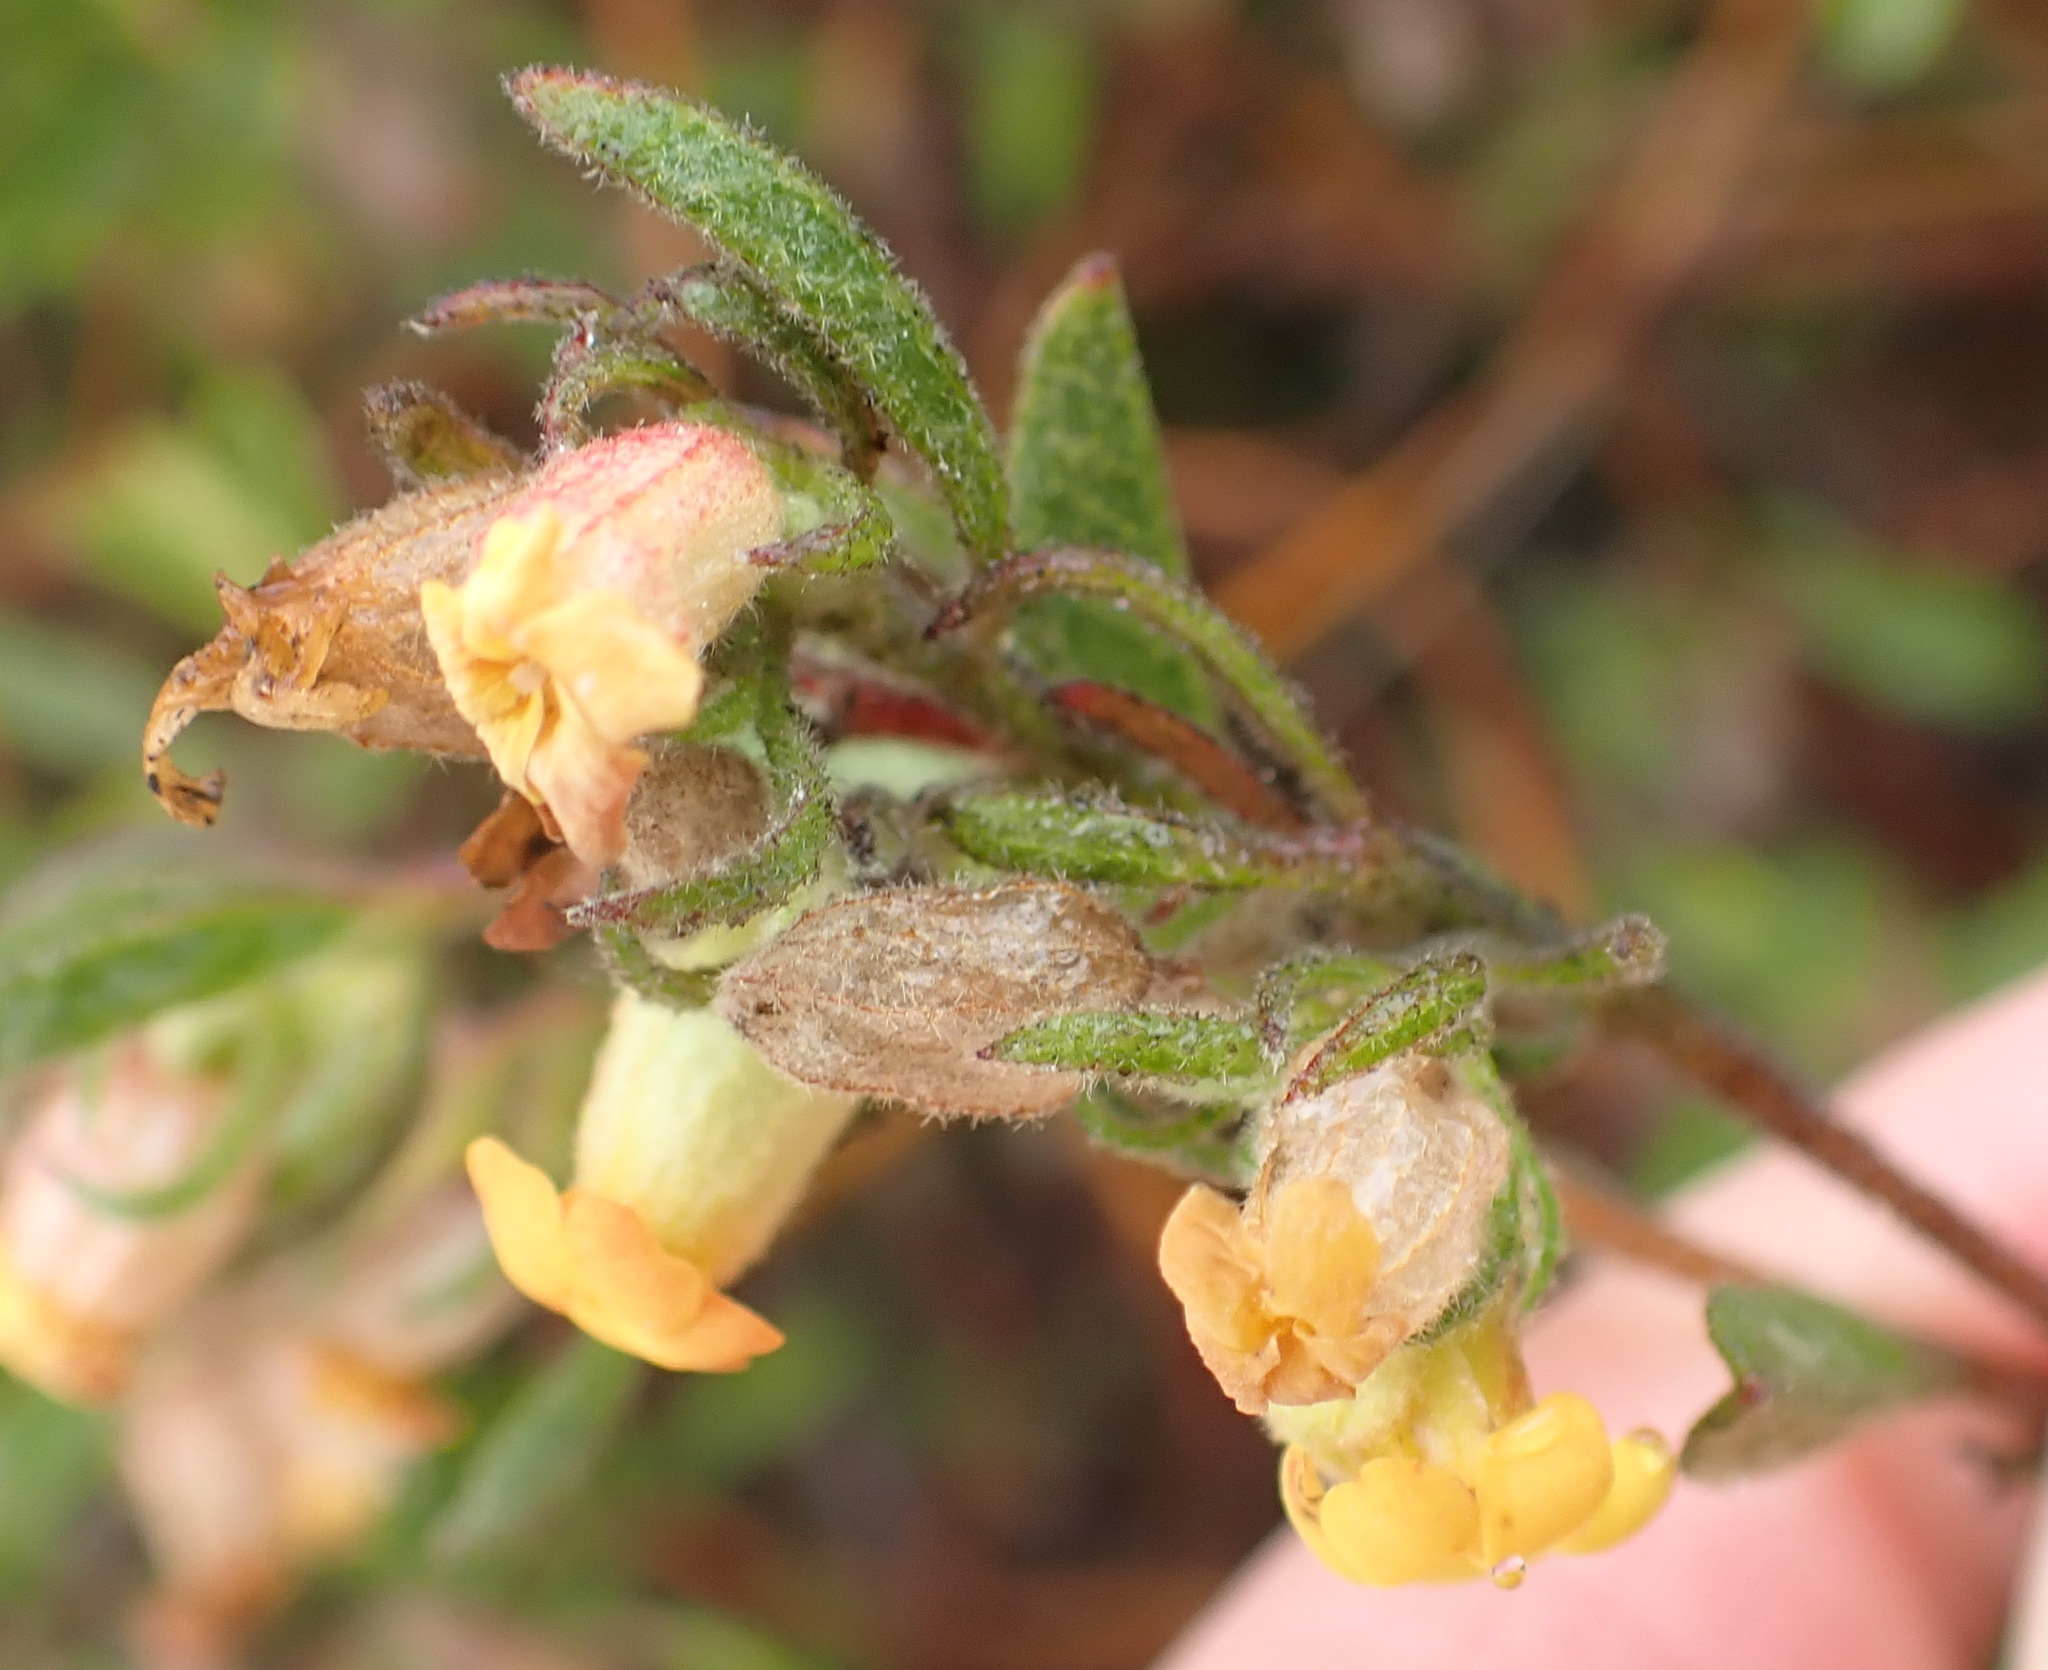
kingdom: Plantae
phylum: Tracheophyta
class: Magnoliopsida
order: Malvales
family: Malvaceae
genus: Hermannia
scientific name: Hermannia salviifolia
